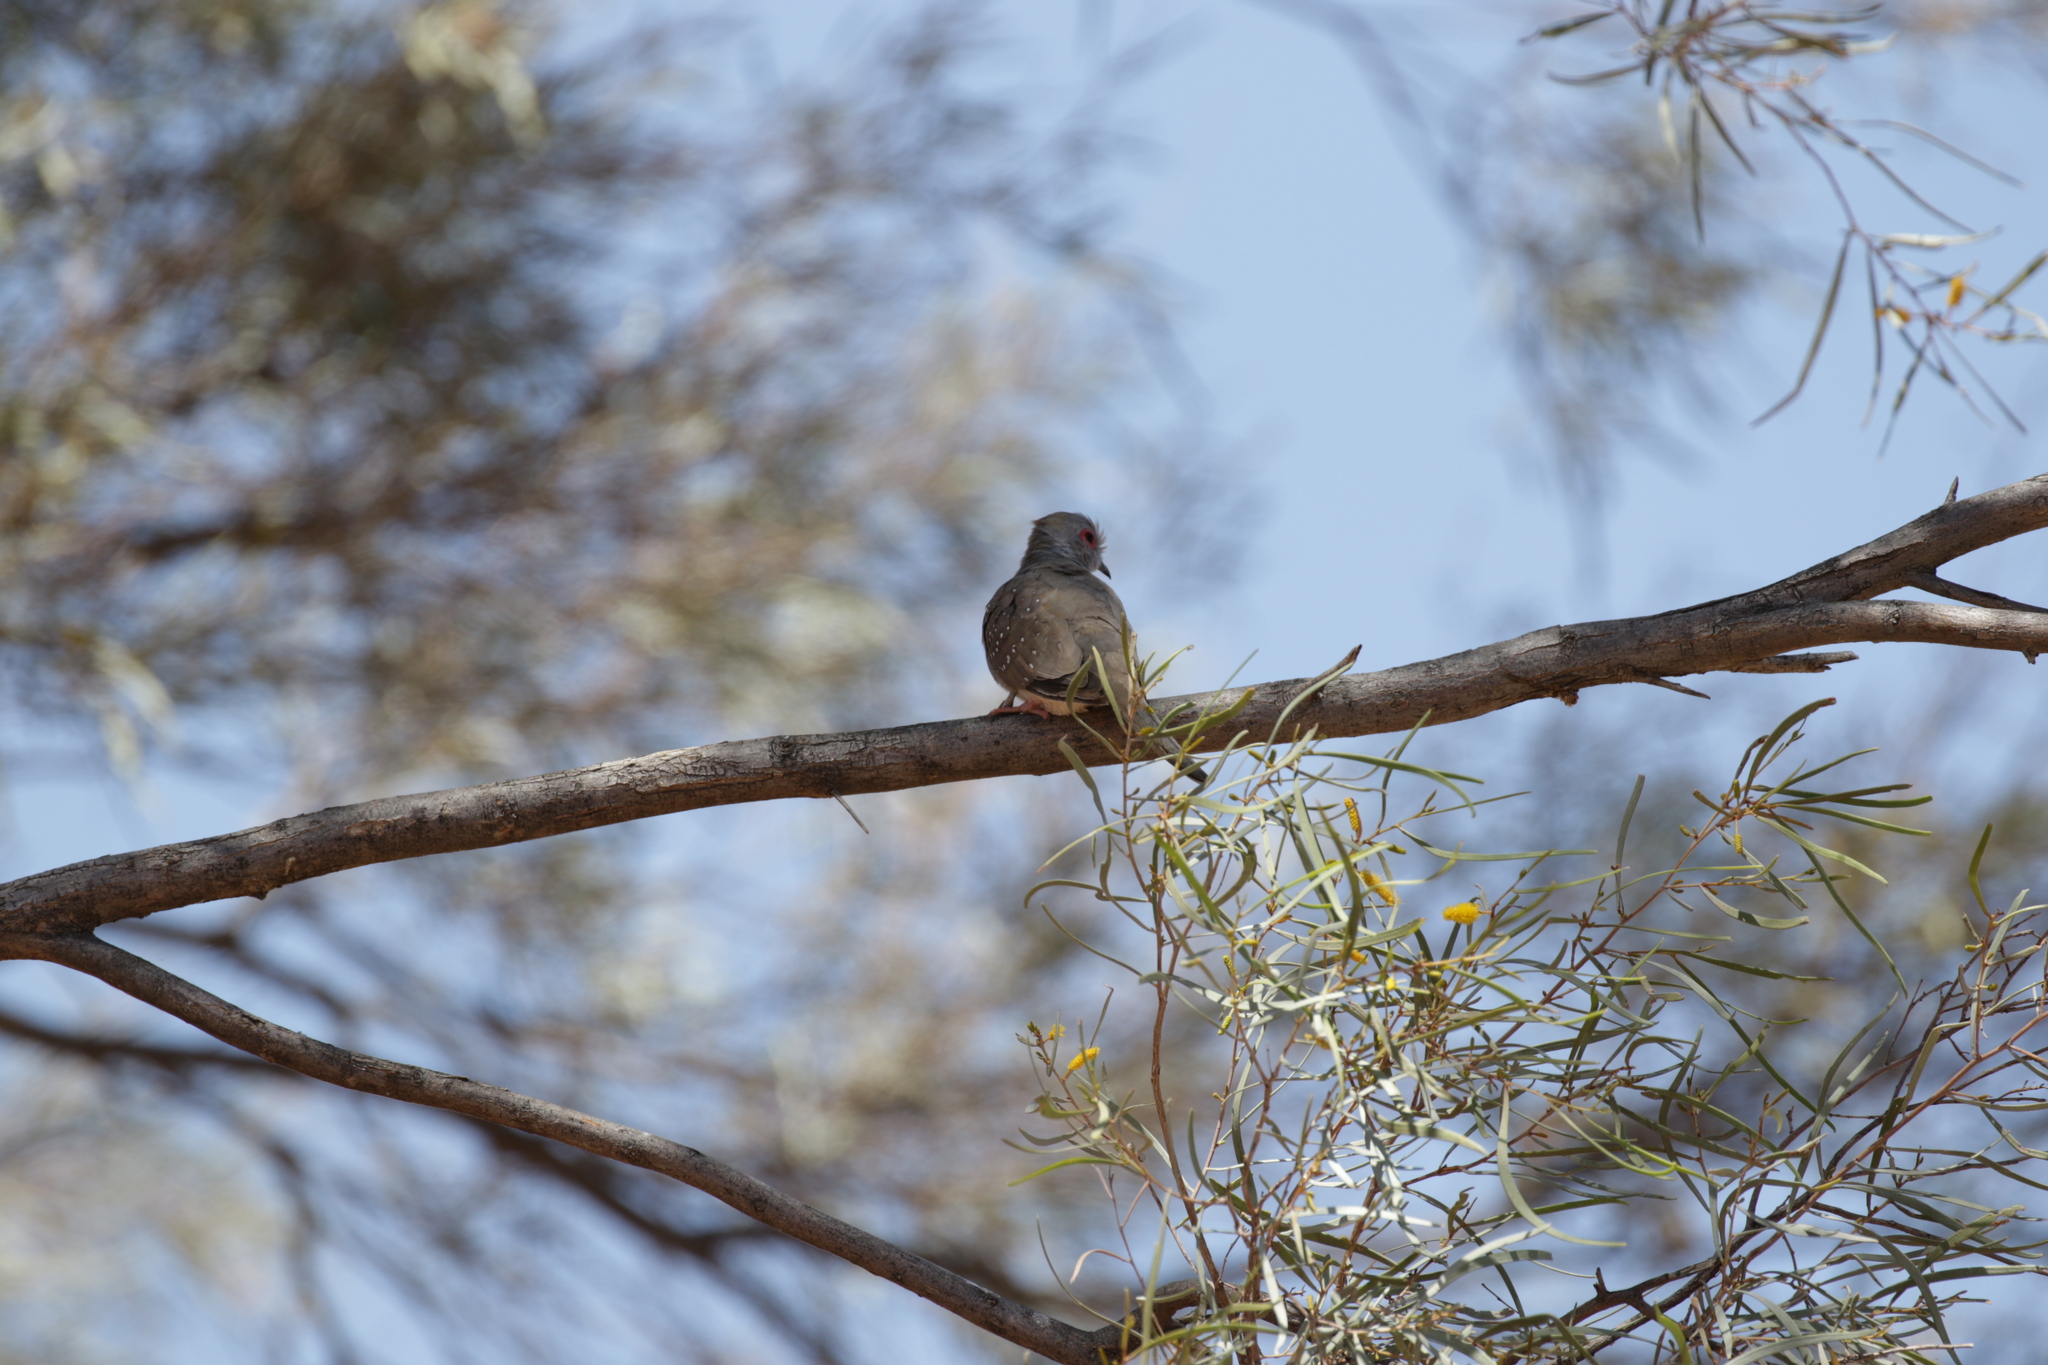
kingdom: Animalia
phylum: Chordata
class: Aves
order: Columbiformes
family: Columbidae
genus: Geopelia
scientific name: Geopelia cuneata
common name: Diamond dove
